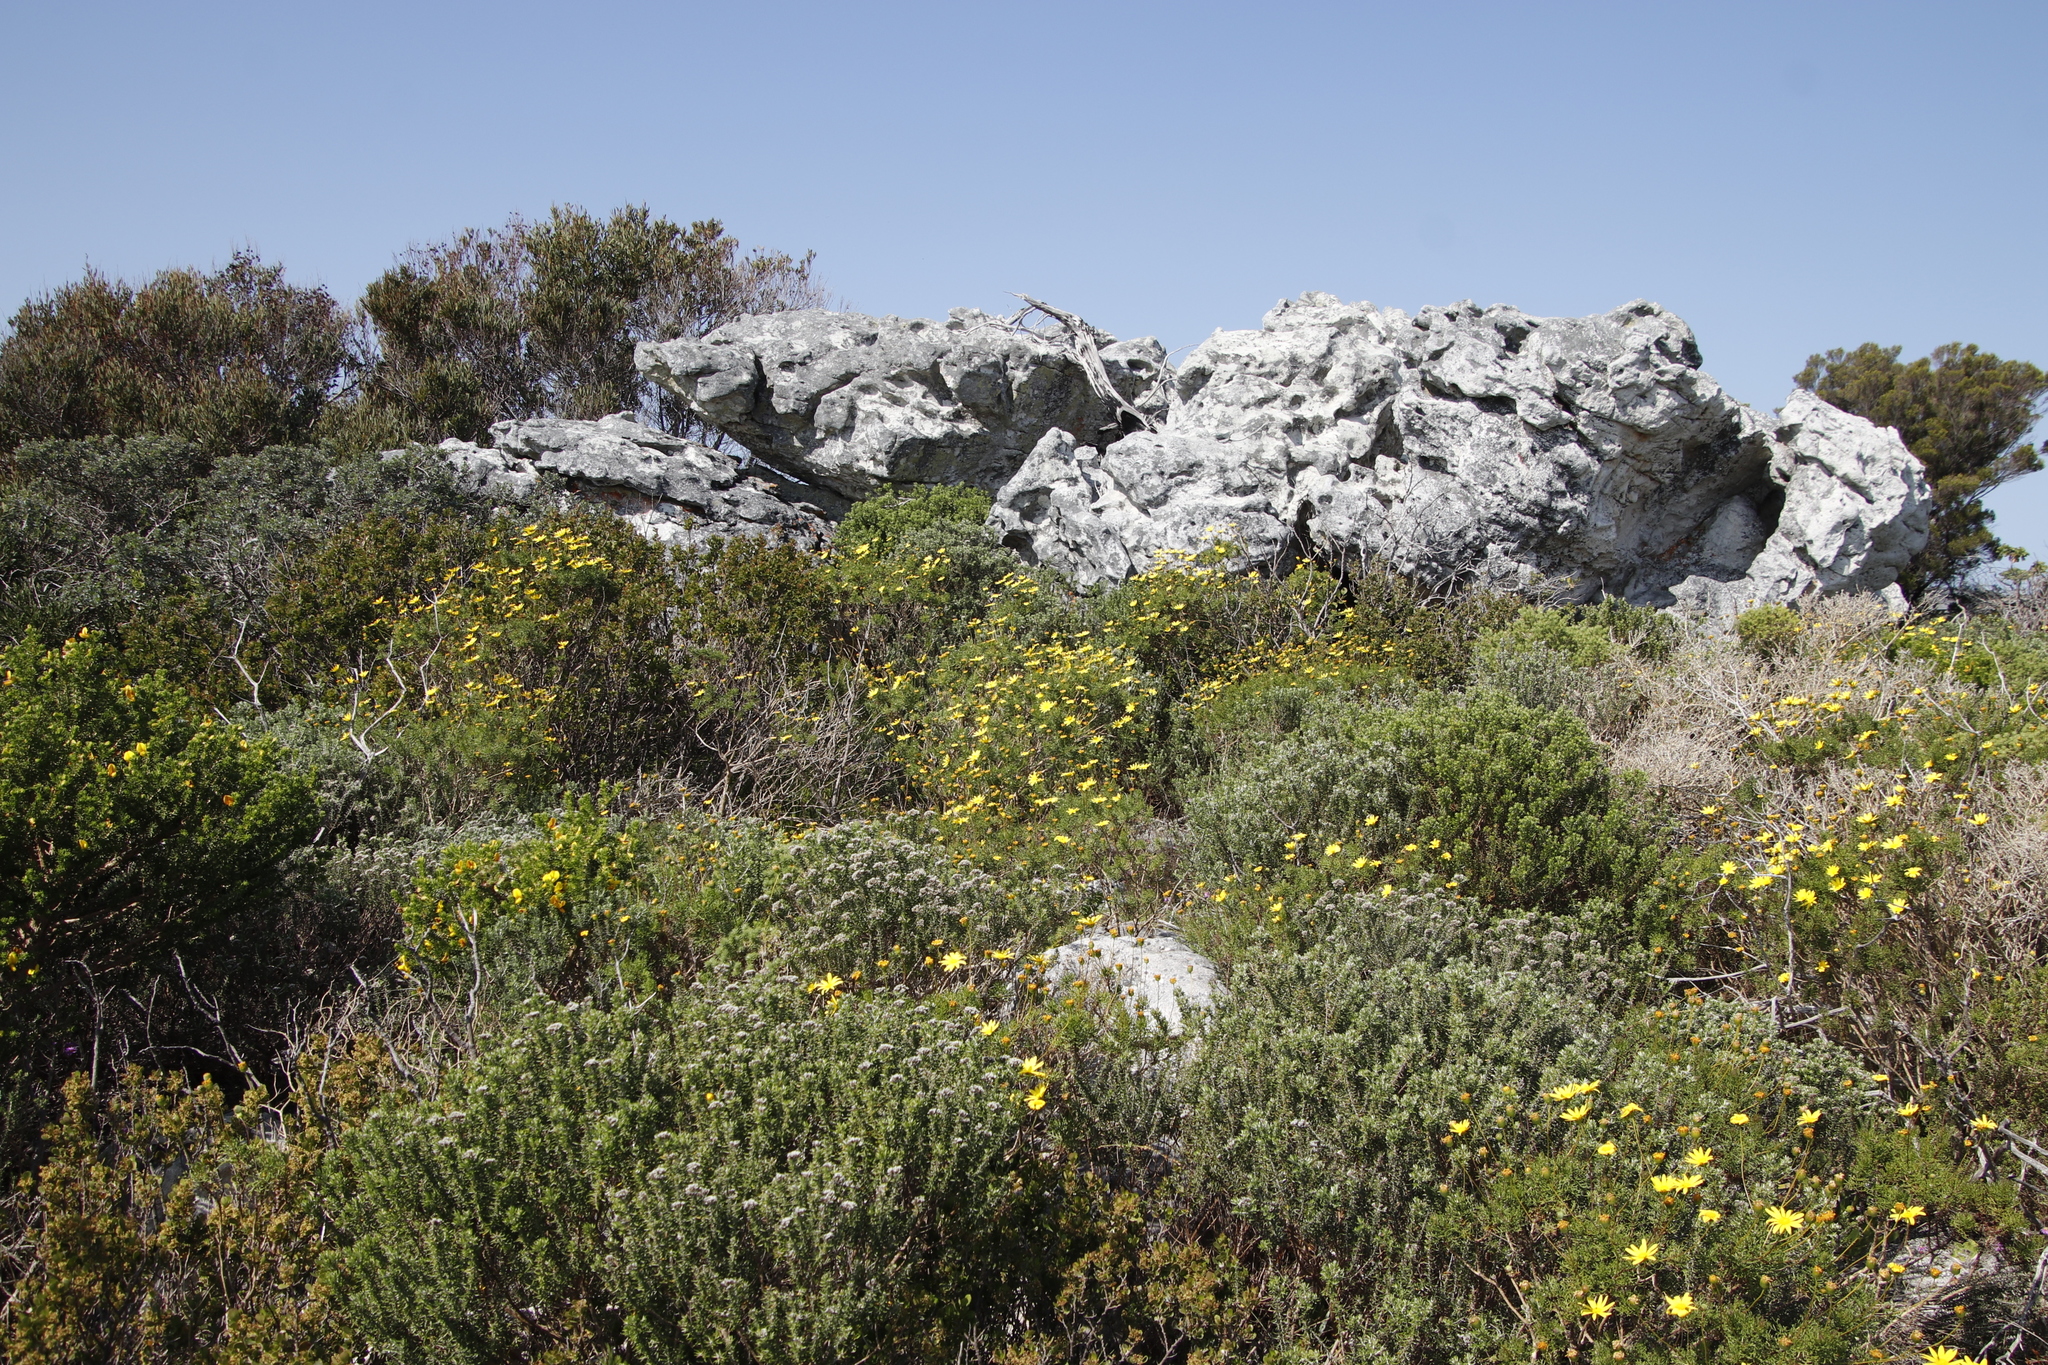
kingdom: Plantae
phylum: Tracheophyta
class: Magnoliopsida
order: Asterales
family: Asteraceae
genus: Euryops
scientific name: Euryops abrotanifolius
